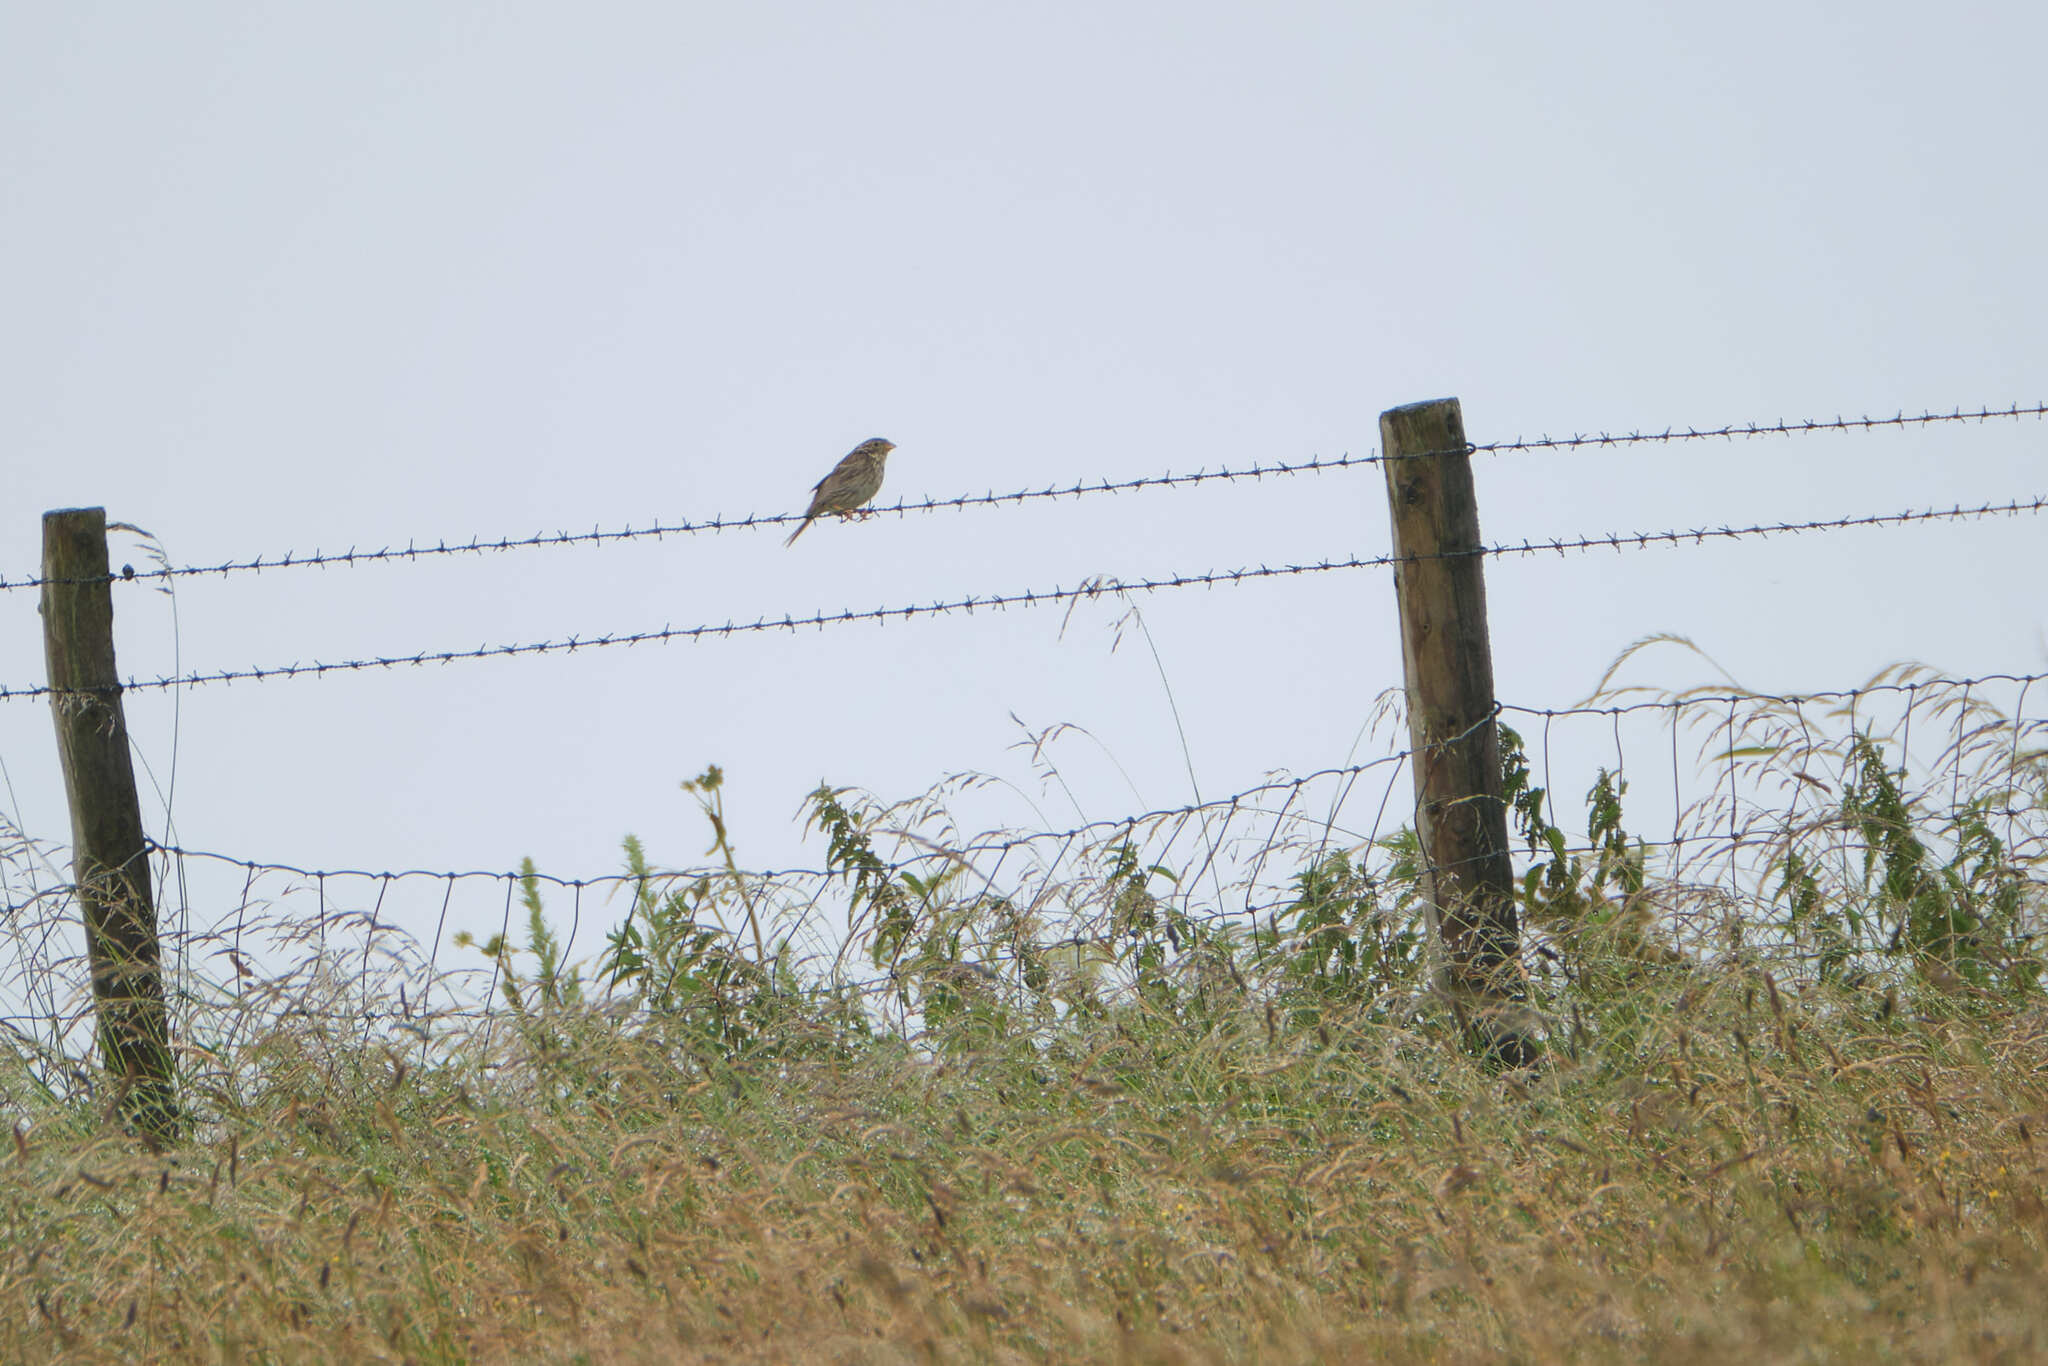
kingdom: Animalia
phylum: Chordata
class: Aves
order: Passeriformes
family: Emberizidae
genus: Emberiza
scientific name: Emberiza calandra
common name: Corn bunting
